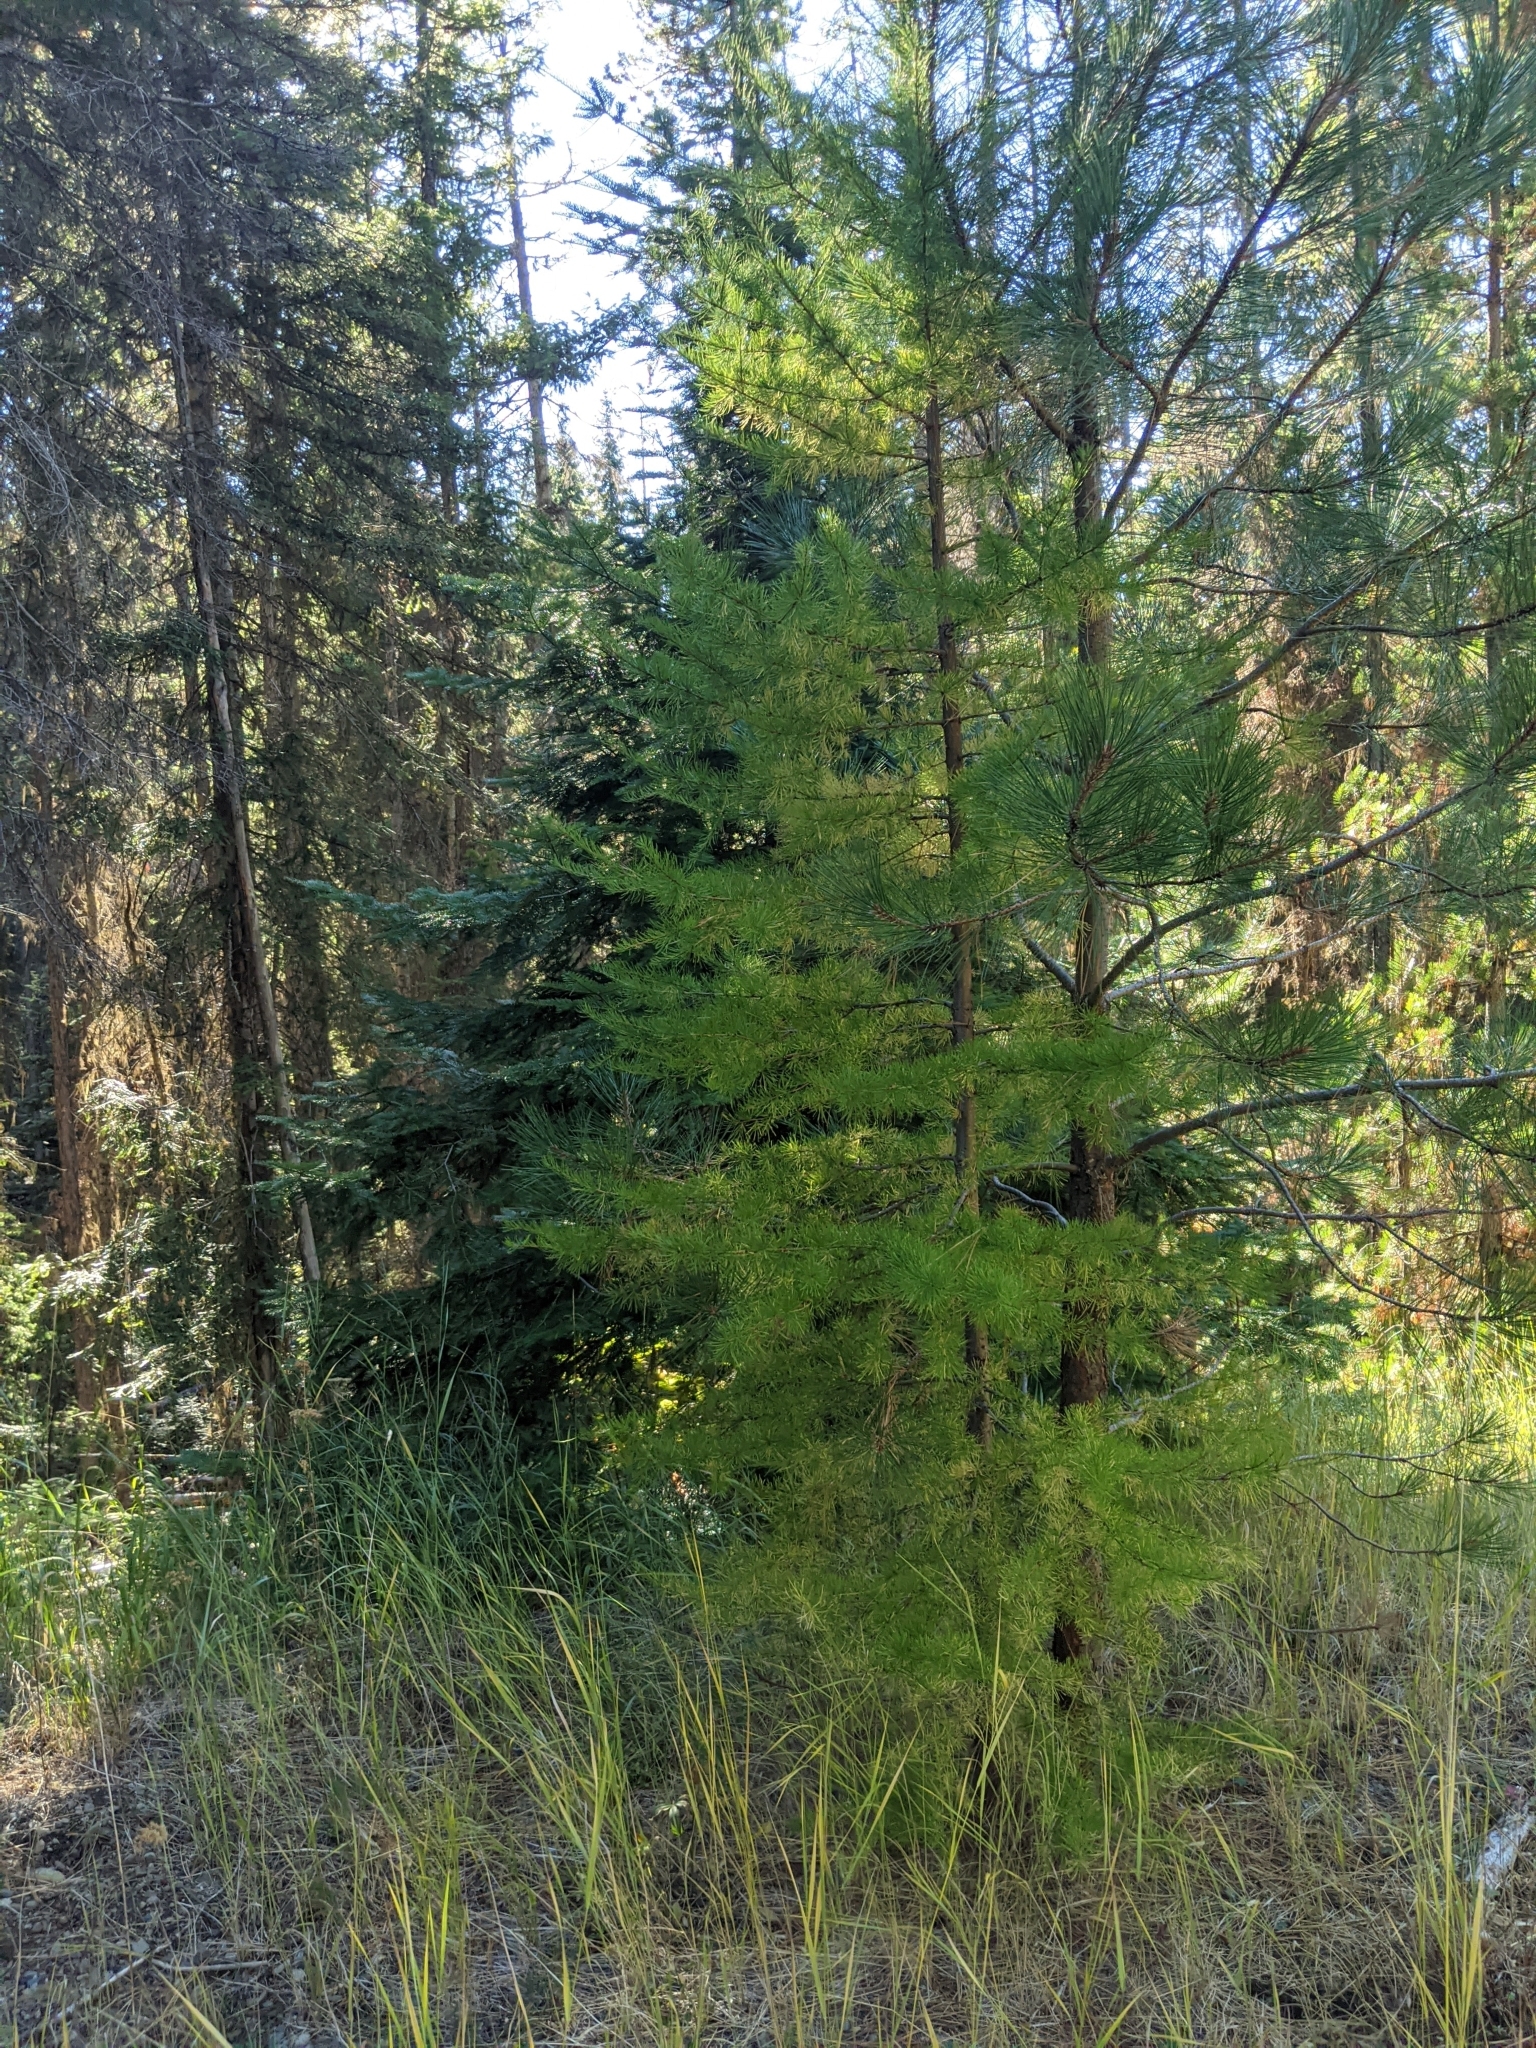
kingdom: Plantae
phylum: Tracheophyta
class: Pinopsida
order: Pinales
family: Pinaceae
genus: Larix
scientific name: Larix occidentalis
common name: Western larch
